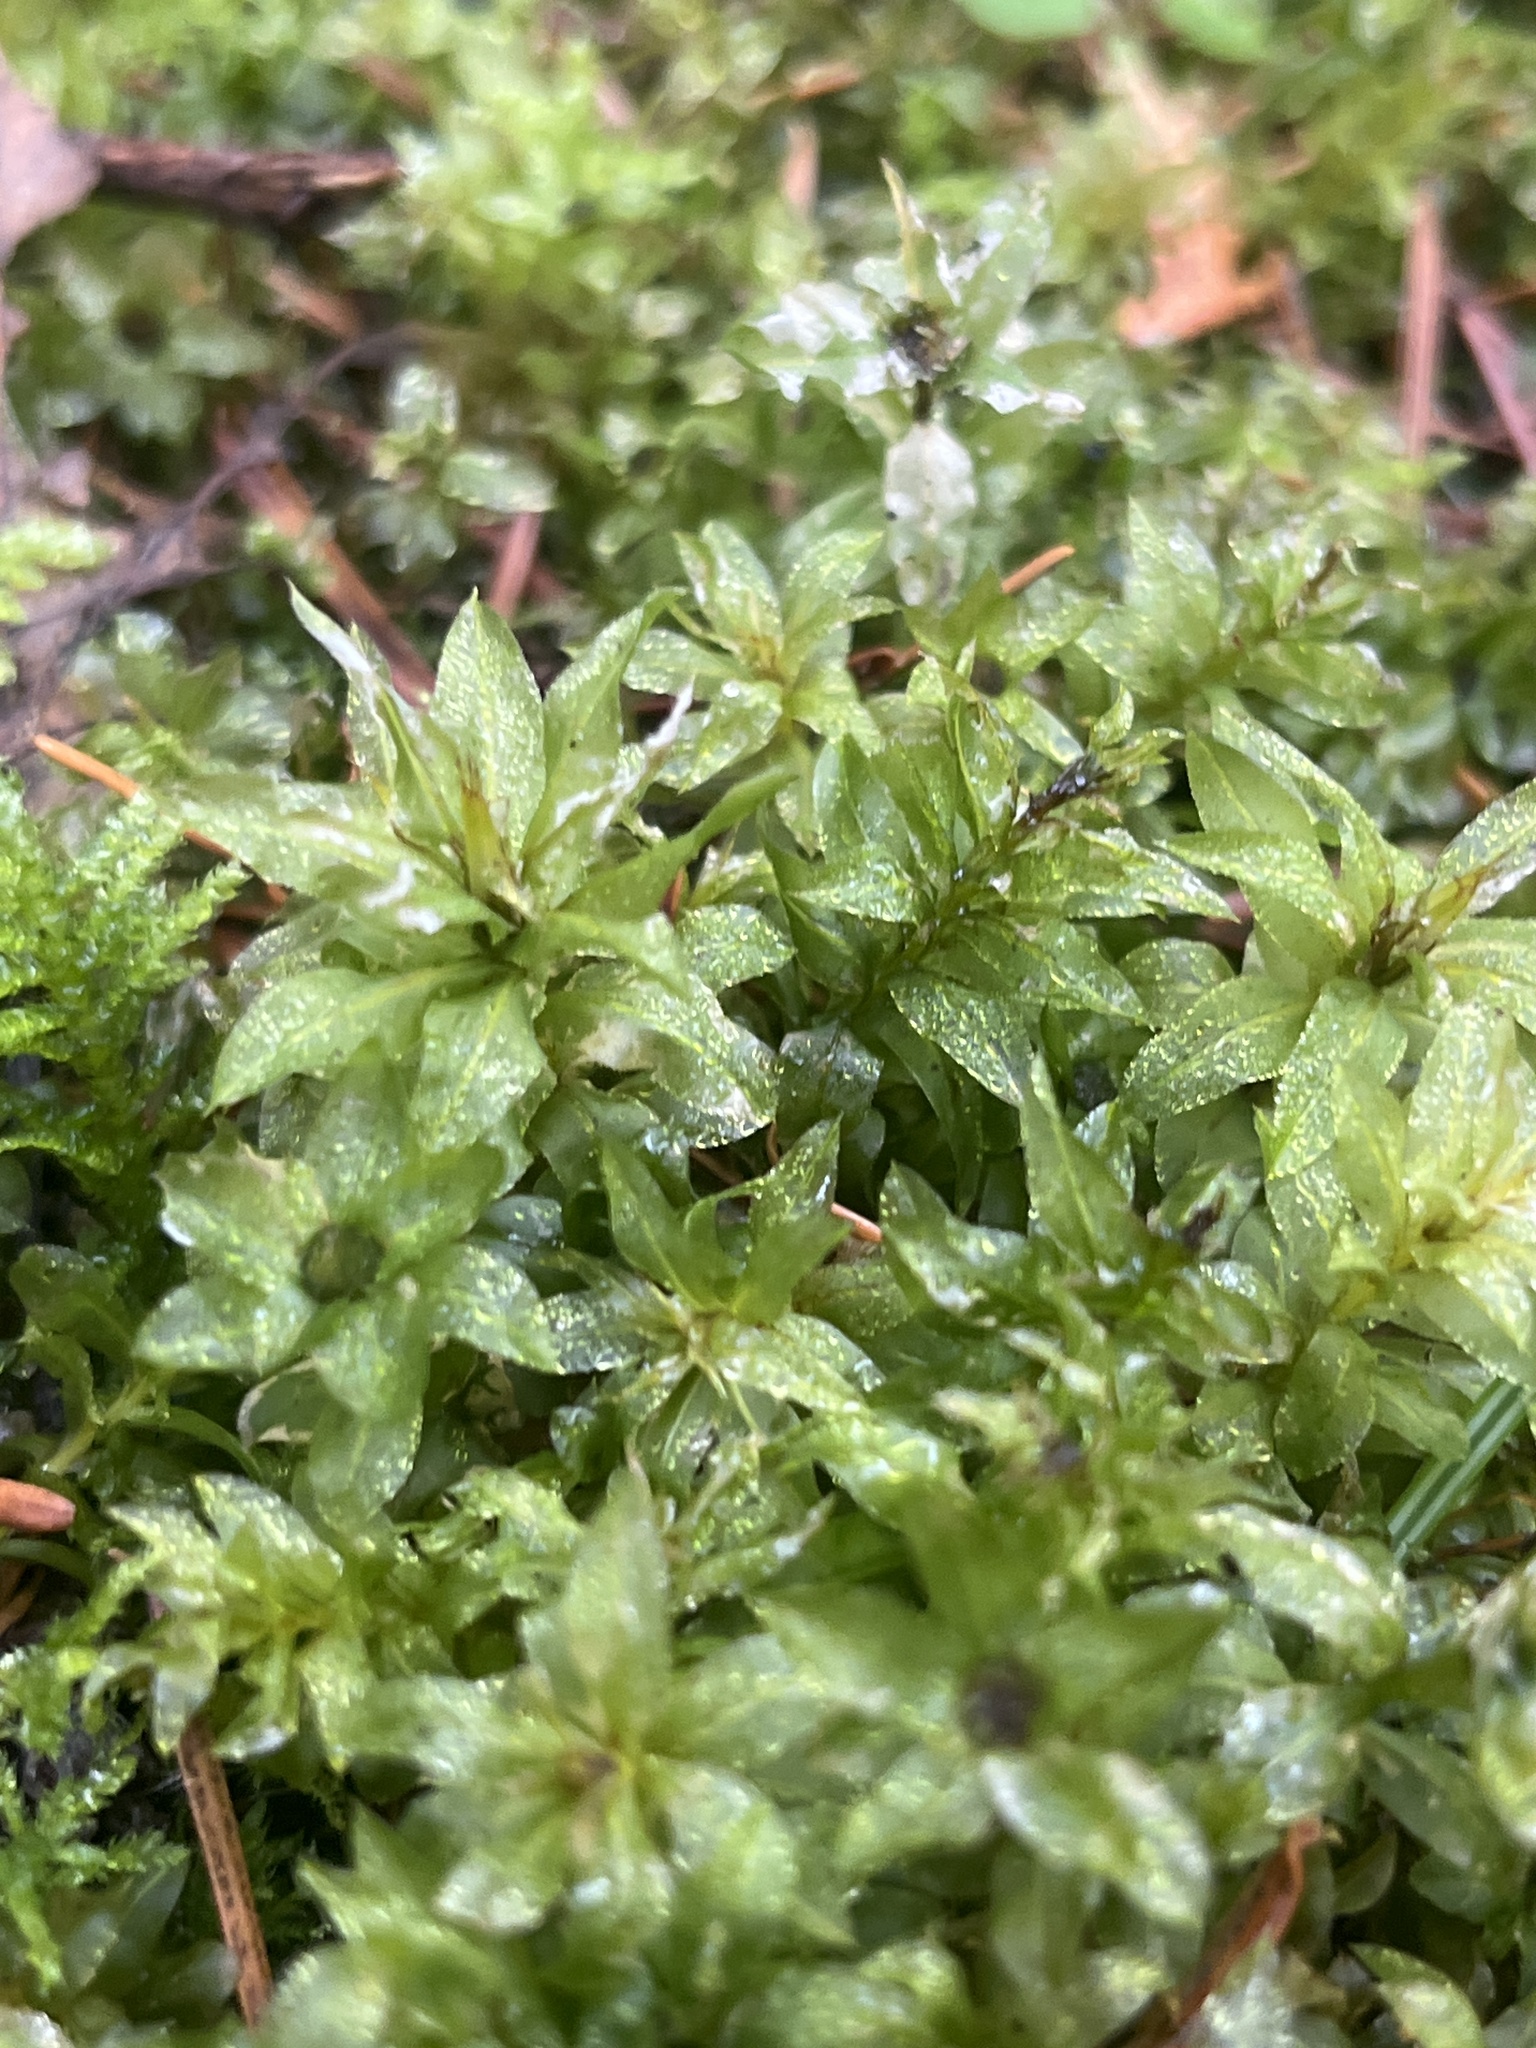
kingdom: Plantae
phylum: Bryophyta
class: Bryopsida
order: Bryales
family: Mniaceae
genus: Plagiomnium
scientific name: Plagiomnium insigne
